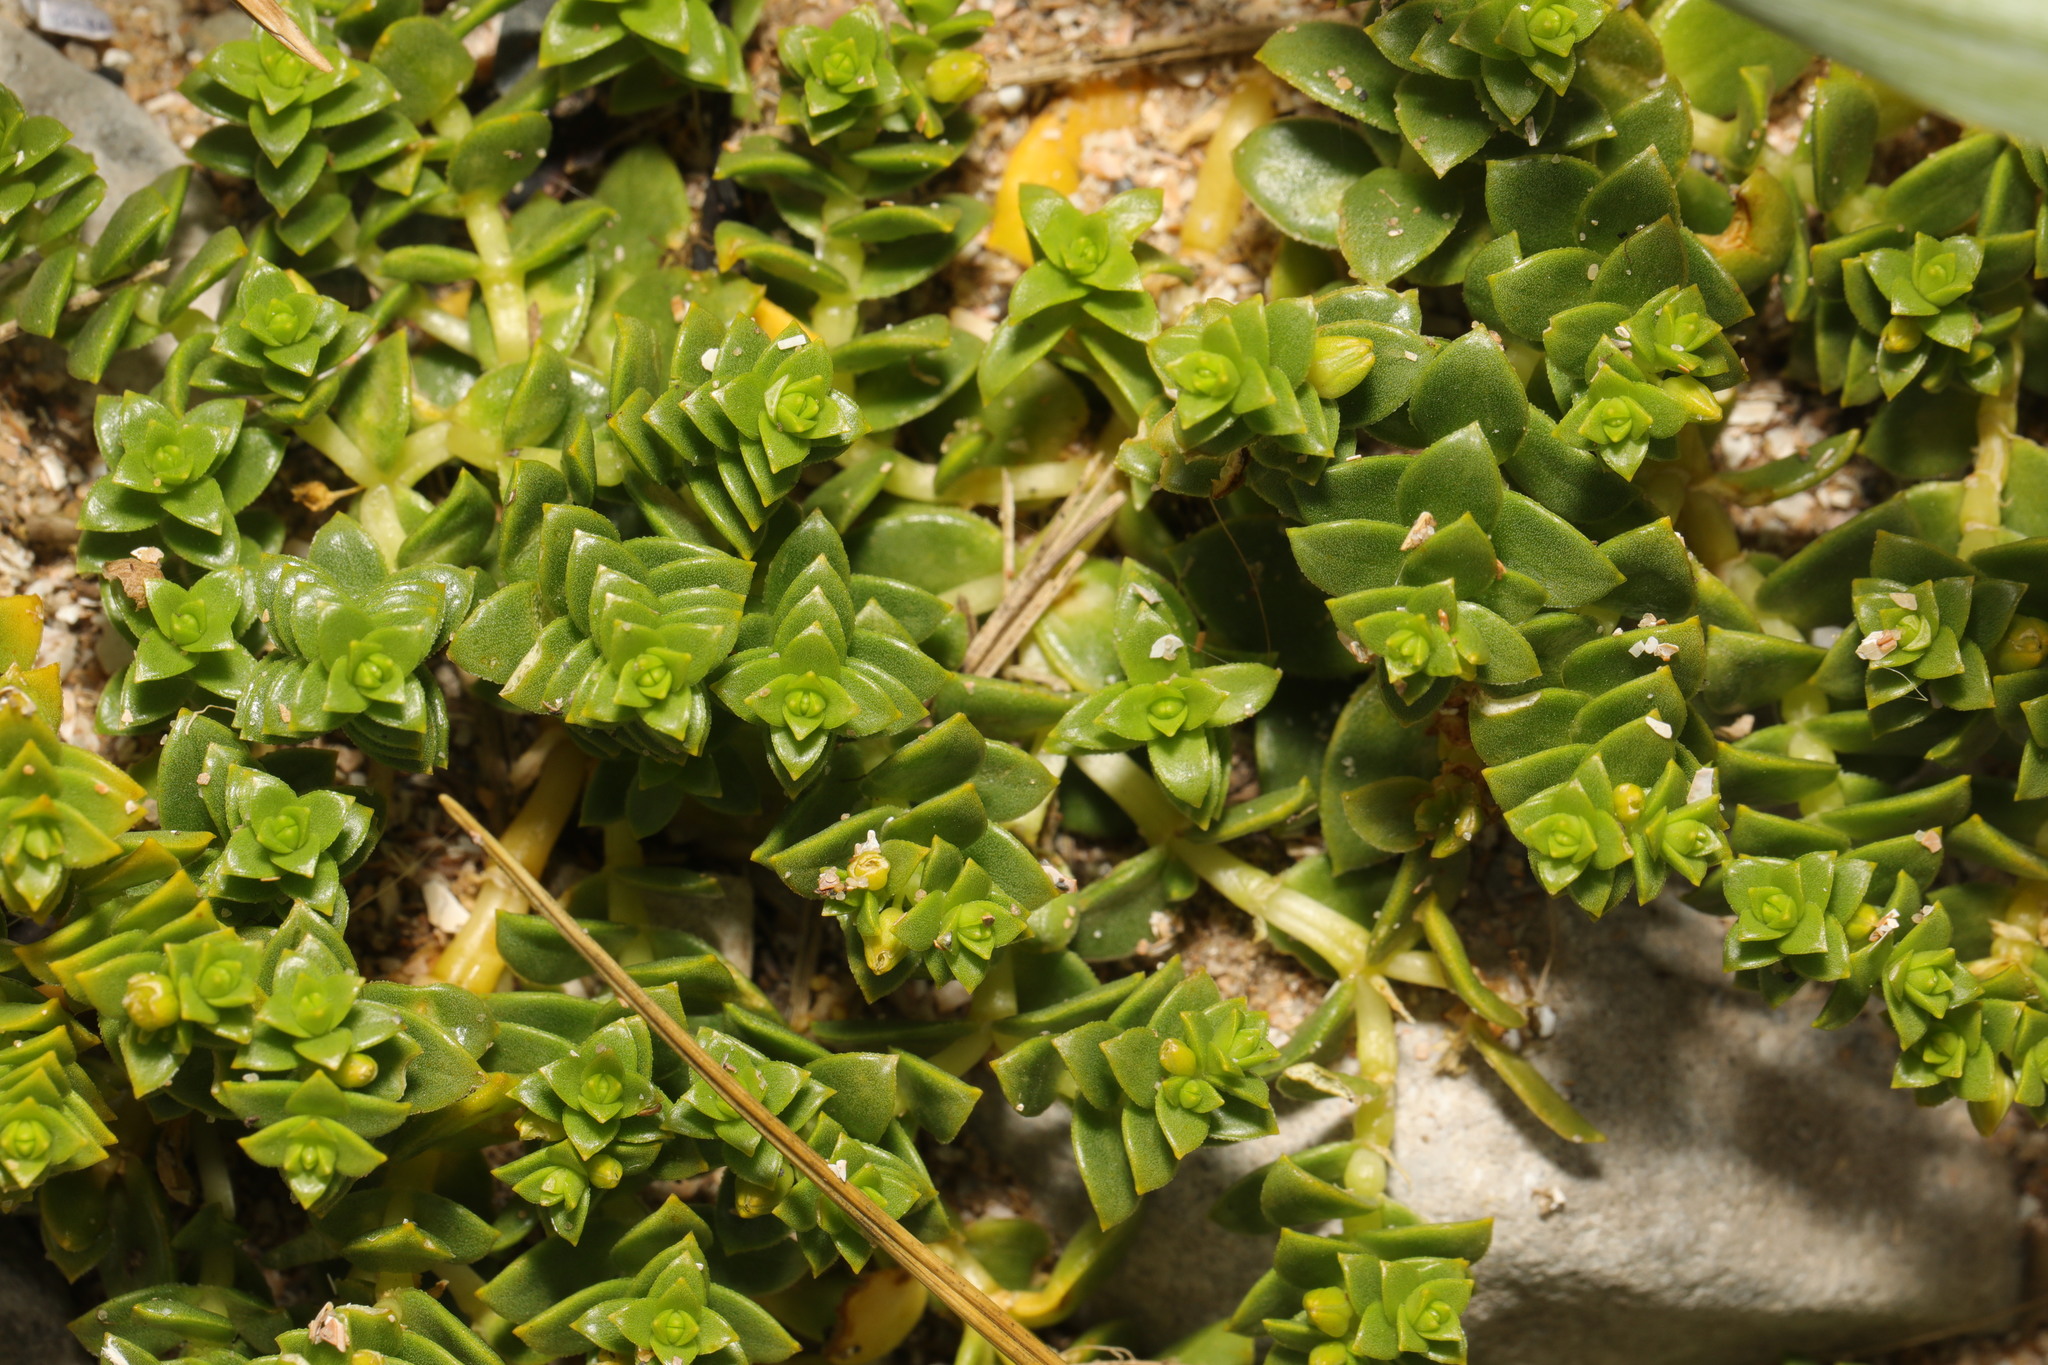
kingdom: Plantae
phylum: Tracheophyta
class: Magnoliopsida
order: Caryophyllales
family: Caryophyllaceae
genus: Honckenya
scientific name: Honckenya peploides
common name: Sea sandwort
